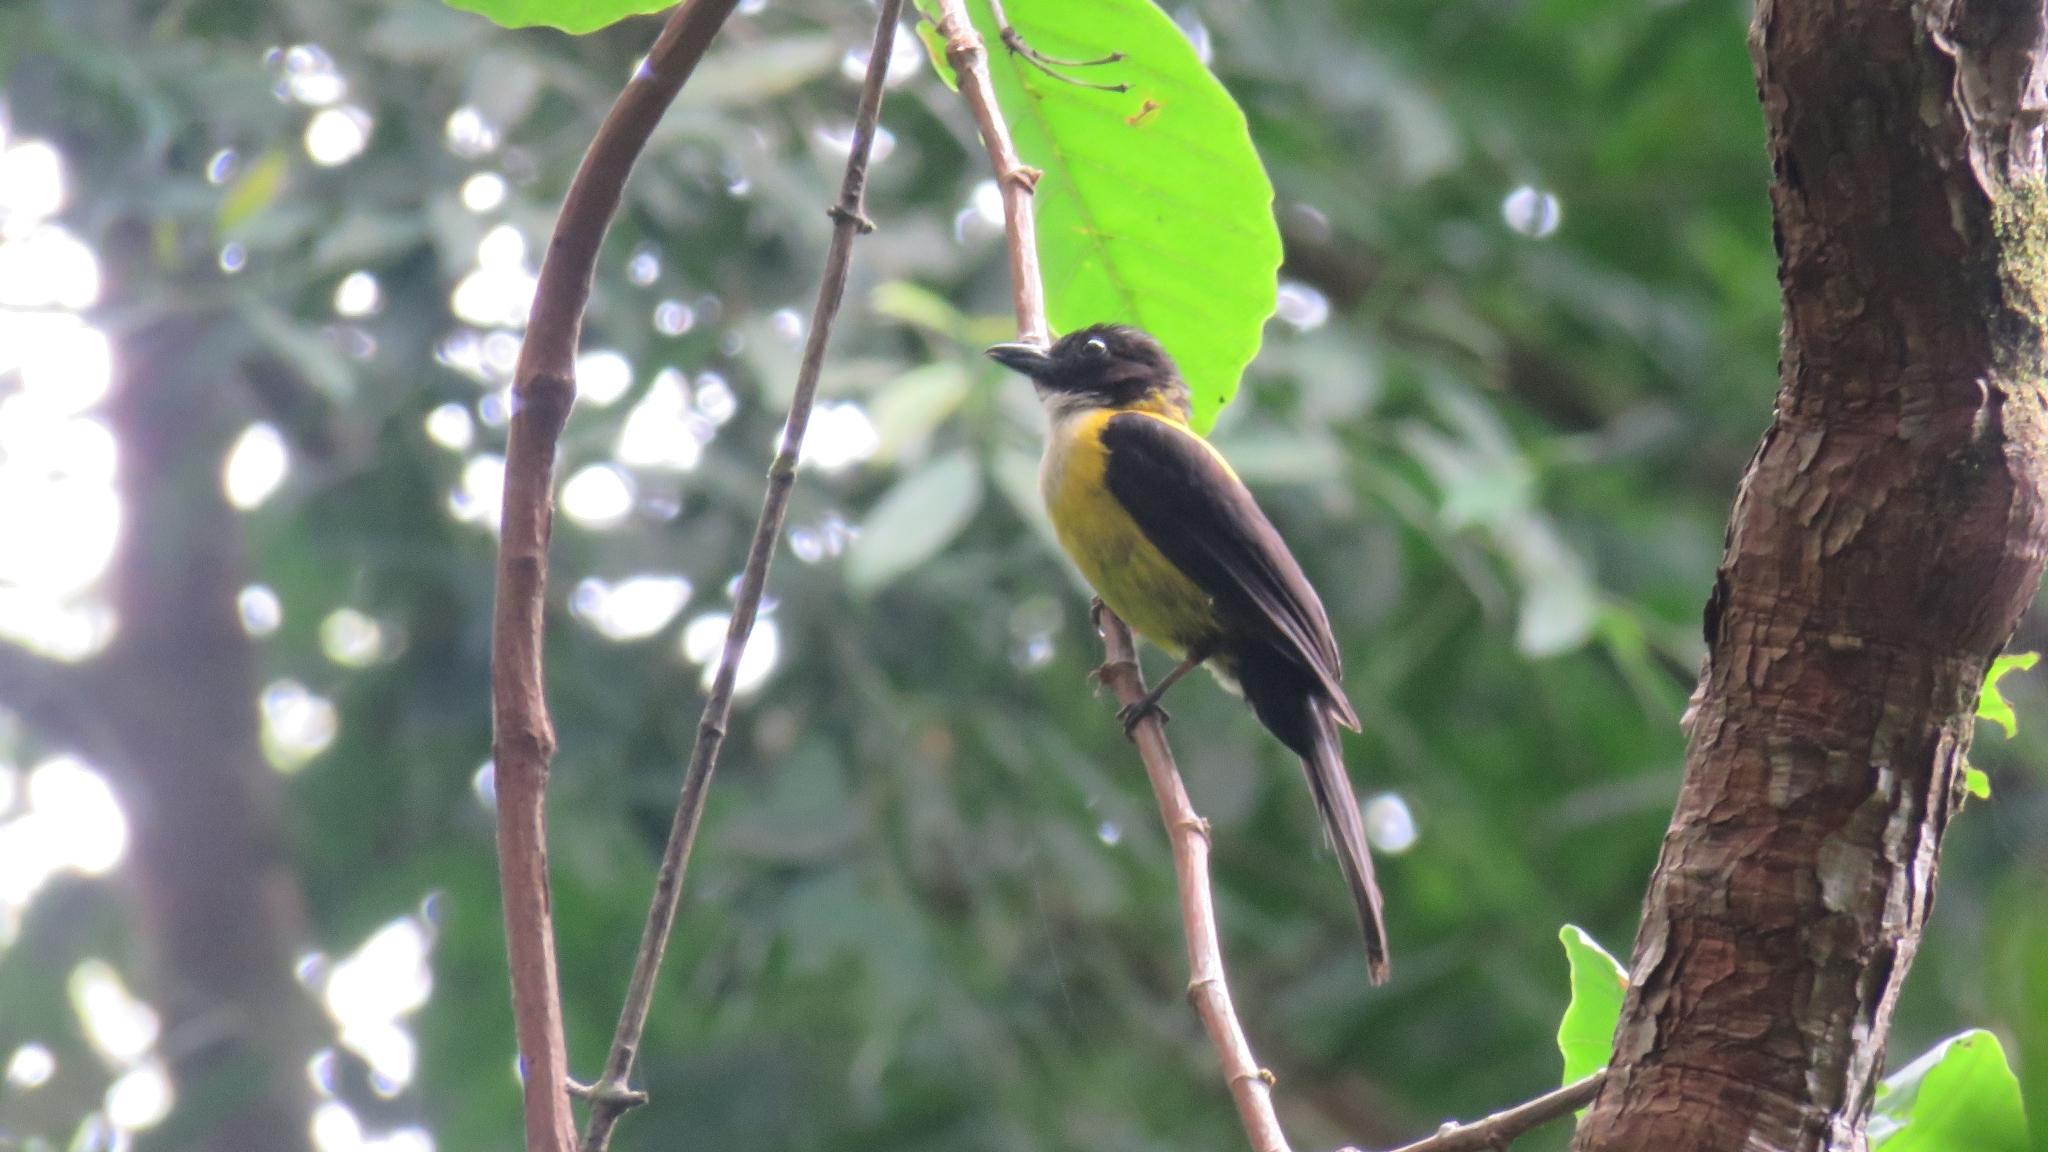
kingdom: Animalia
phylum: Chordata
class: Aves
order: Passeriformes
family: Thraupidae
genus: Lanio
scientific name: Lanio leucothorax
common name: White-throated shrike-tanager
